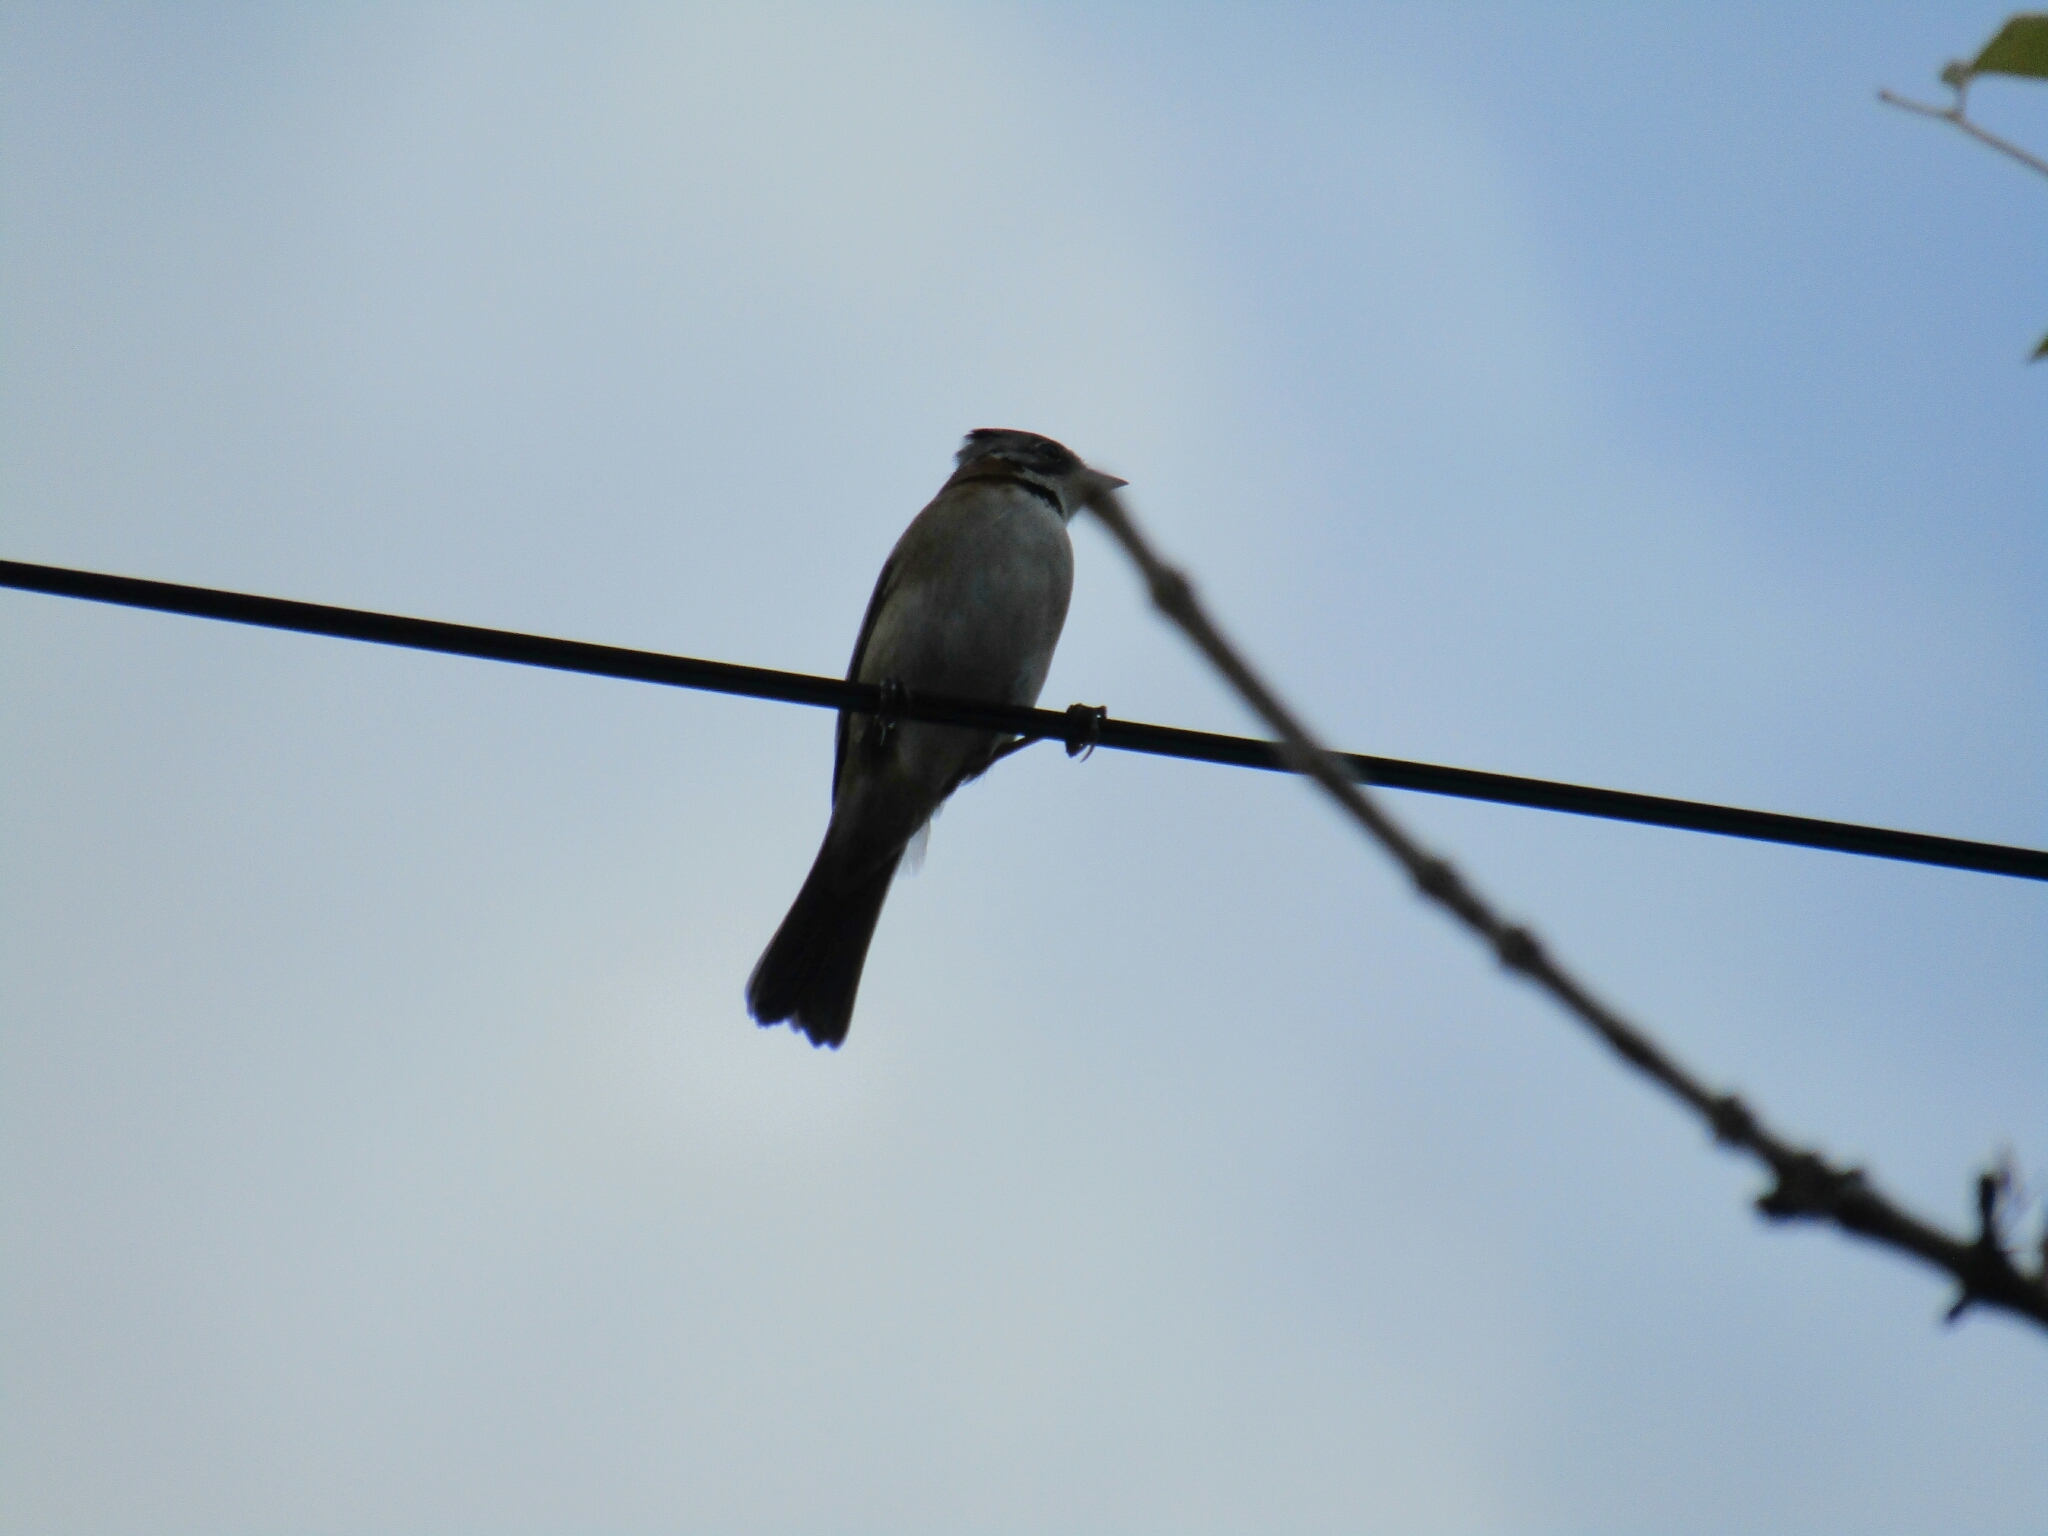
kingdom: Animalia
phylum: Chordata
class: Aves
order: Passeriformes
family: Passerellidae
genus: Zonotrichia
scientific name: Zonotrichia capensis
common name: Rufous-collared sparrow
